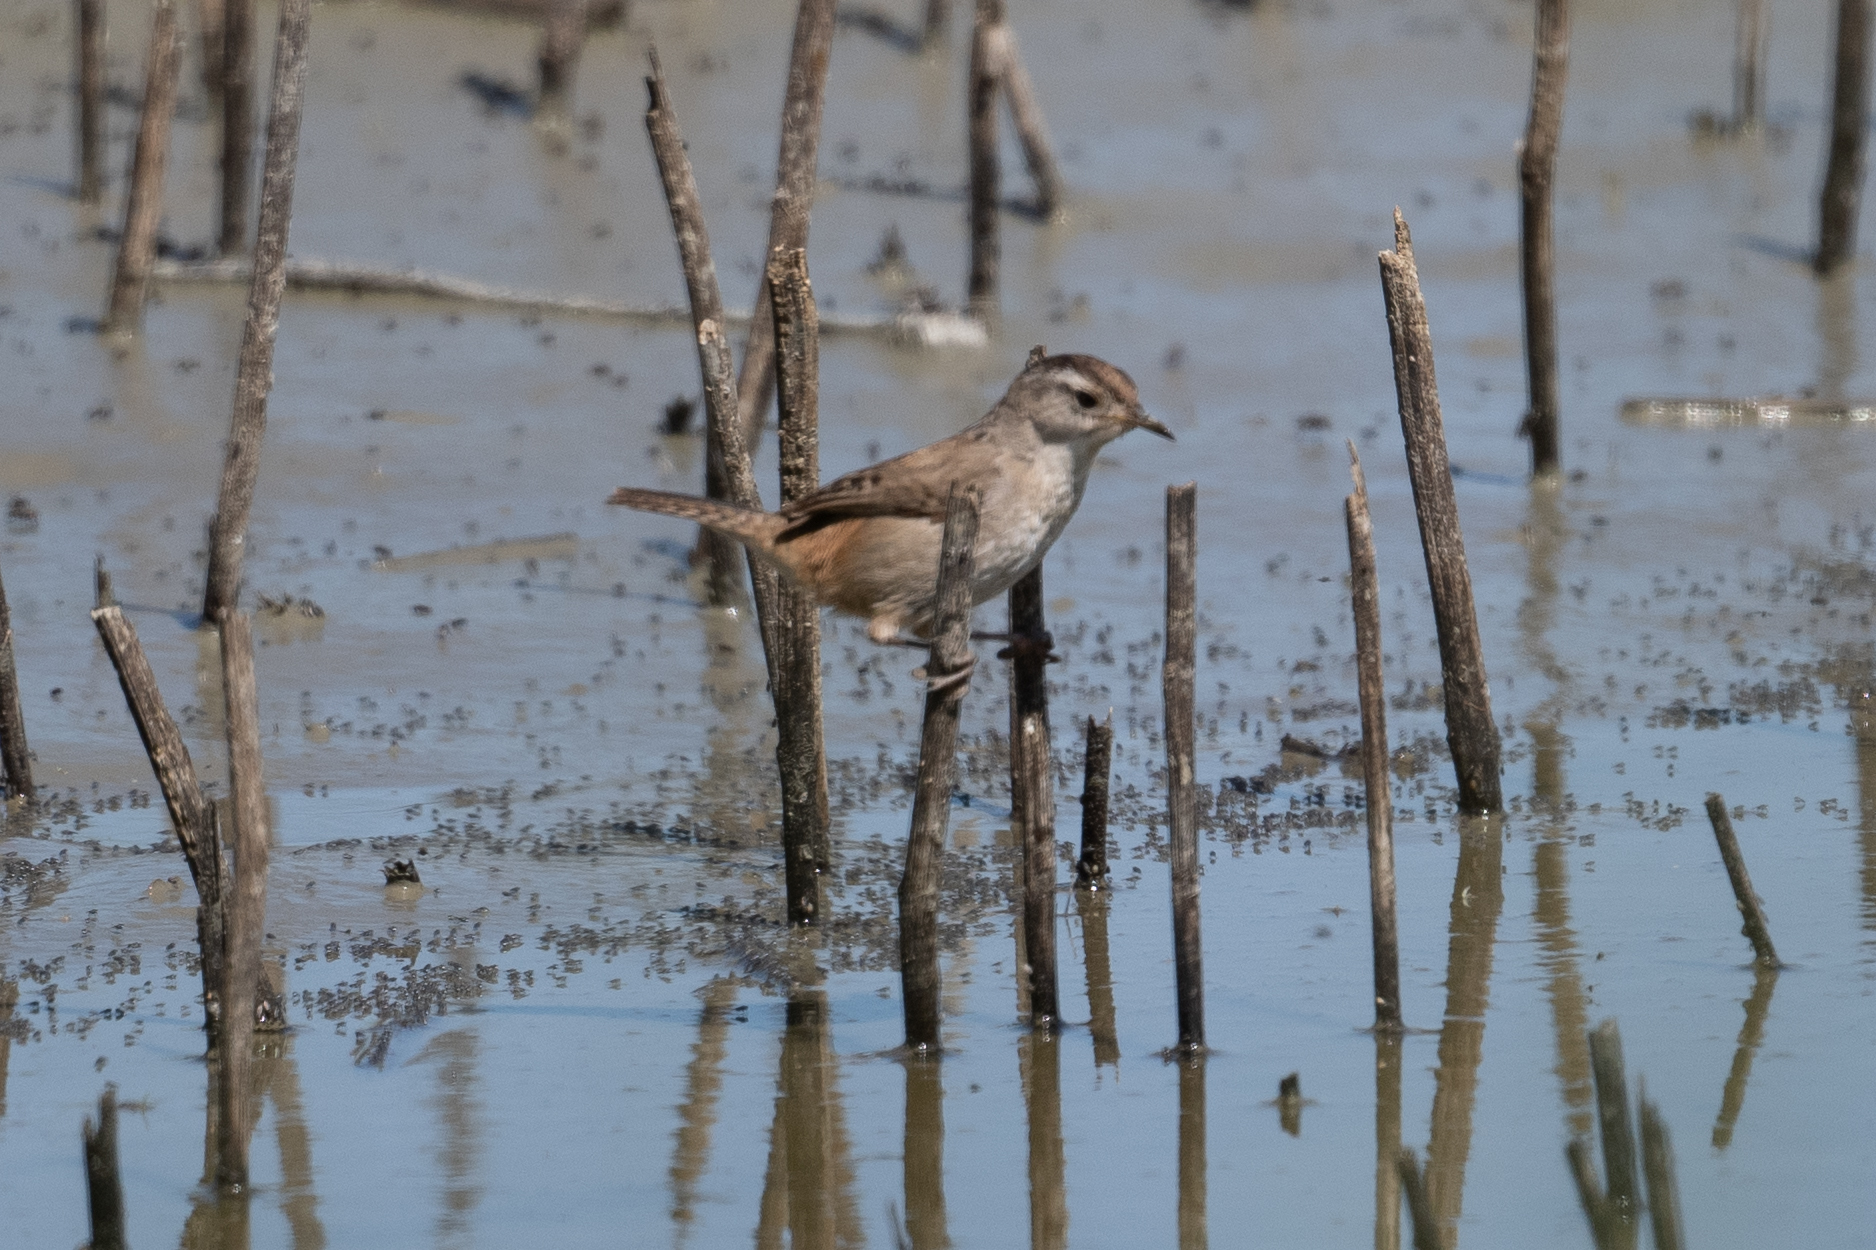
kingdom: Animalia
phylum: Chordata
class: Aves
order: Passeriformes
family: Troglodytidae
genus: Cistothorus
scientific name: Cistothorus palustris
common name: Marsh wren
